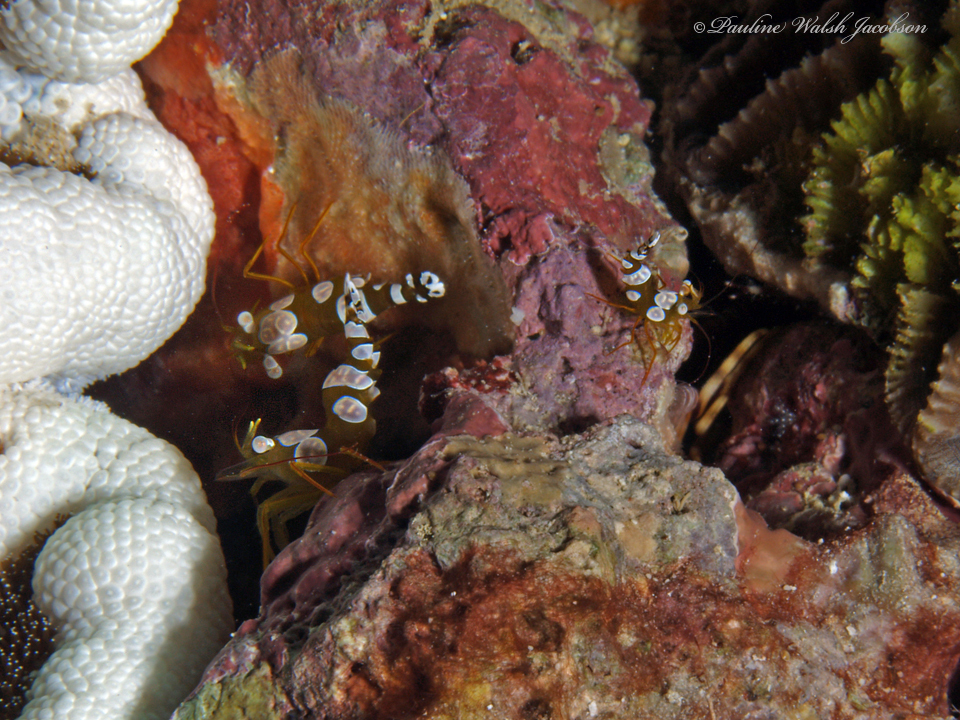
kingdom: Animalia
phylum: Arthropoda
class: Malacostraca
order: Decapoda
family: Thoridae
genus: Thor
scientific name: Thor amboinensis
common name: Squat anemone shrimp
